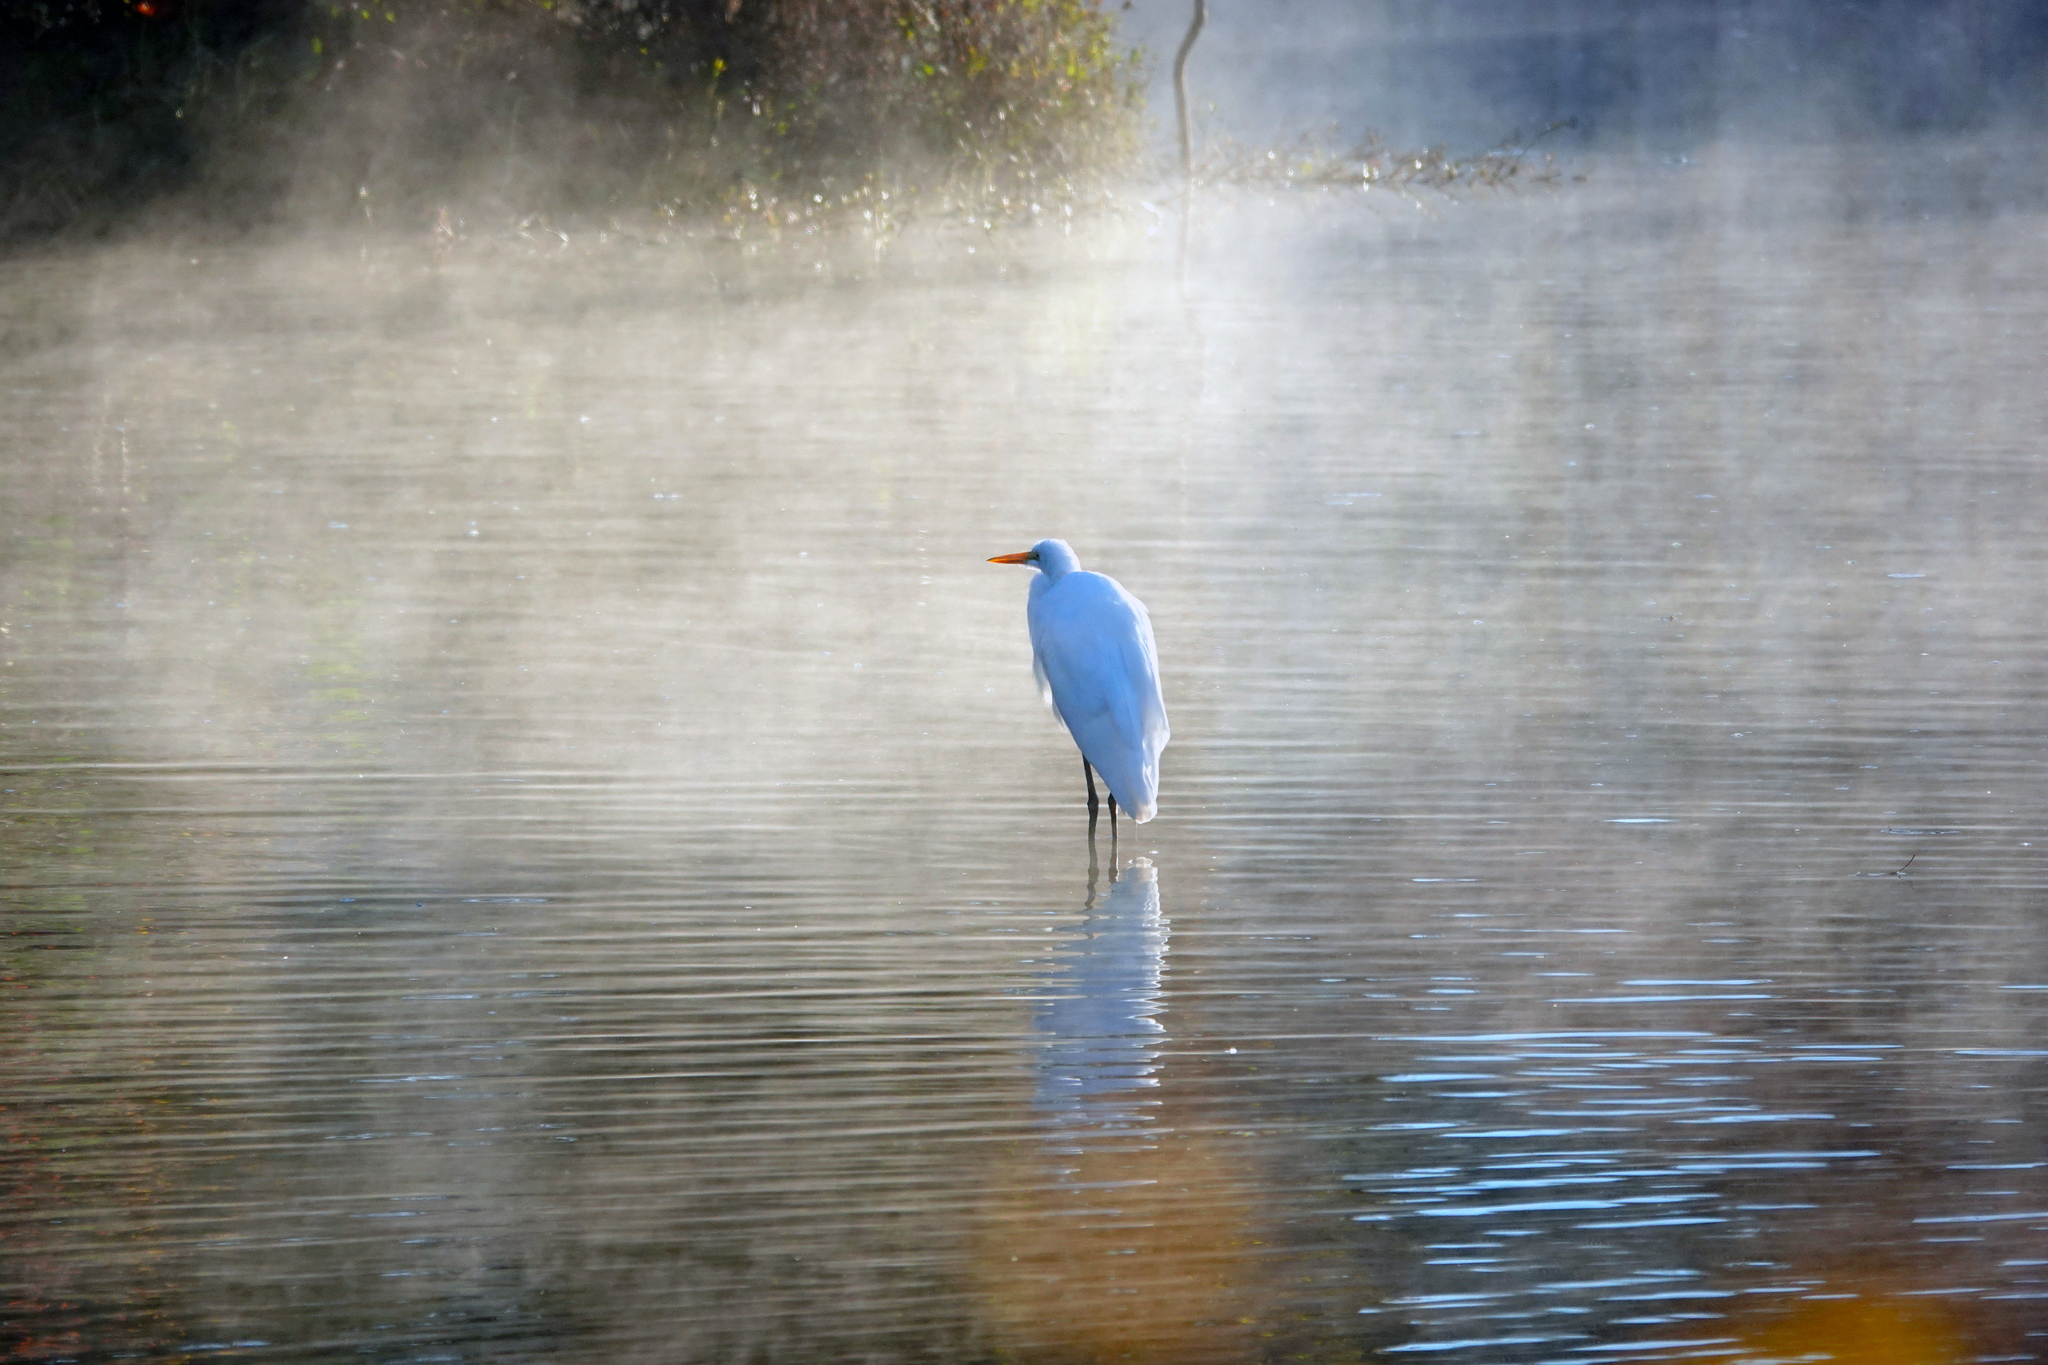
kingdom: Animalia
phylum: Chordata
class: Aves
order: Pelecaniformes
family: Ardeidae
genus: Ardea
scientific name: Ardea alba
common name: Great egret
